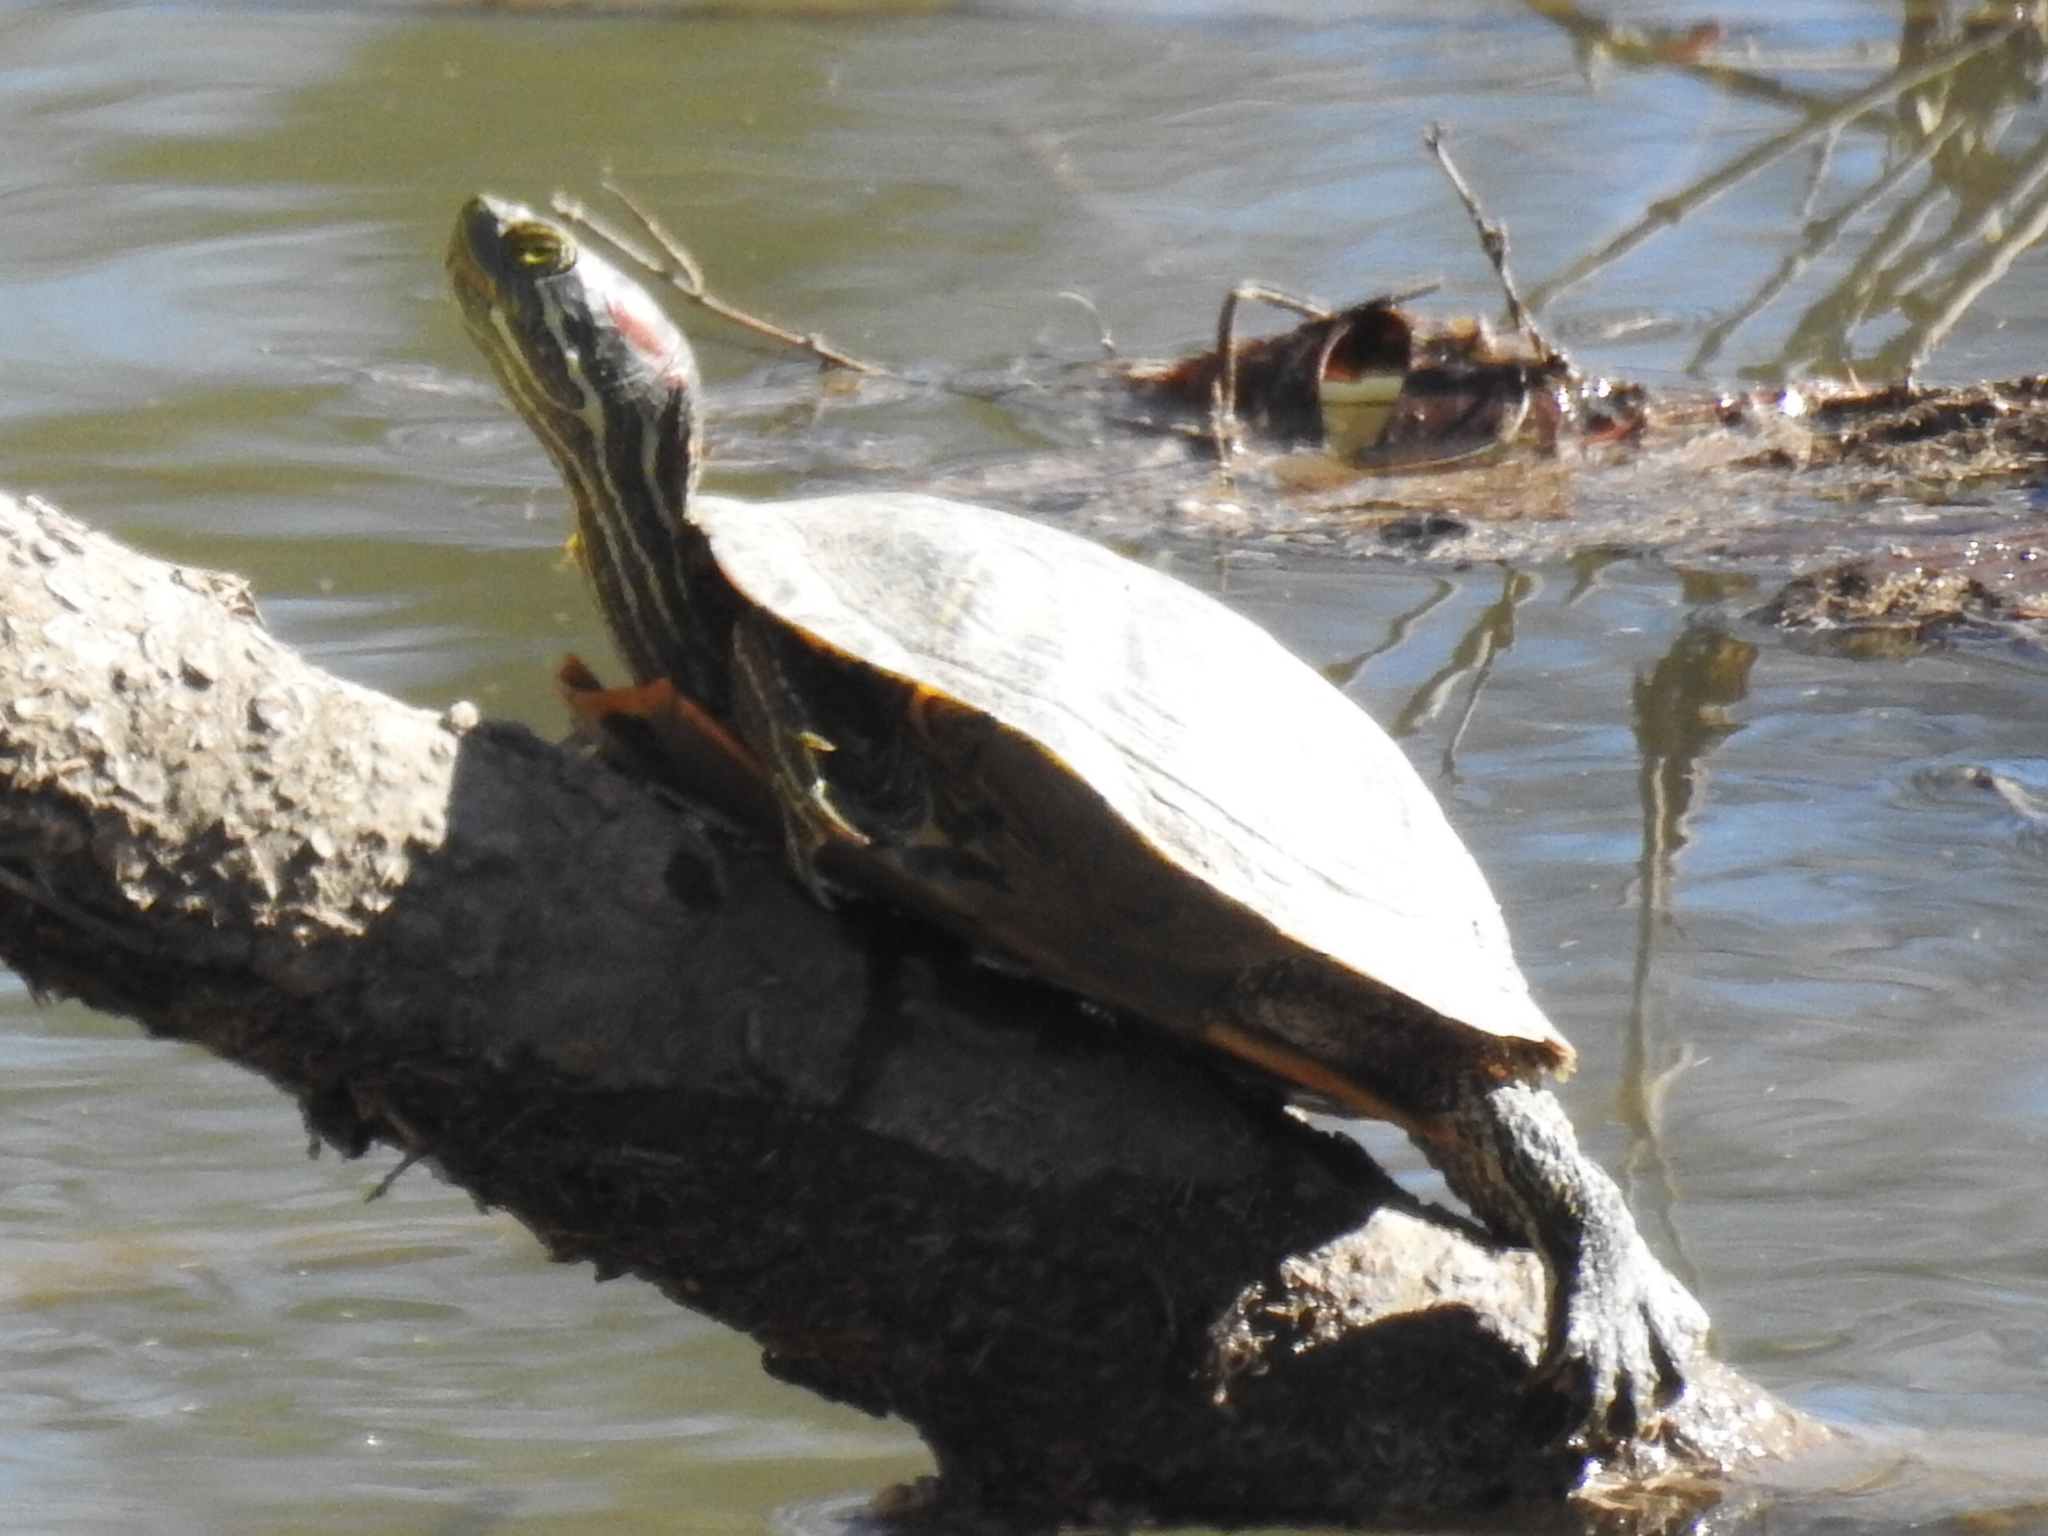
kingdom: Animalia
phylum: Chordata
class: Testudines
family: Emydidae
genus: Trachemys
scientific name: Trachemys scripta
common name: Slider
